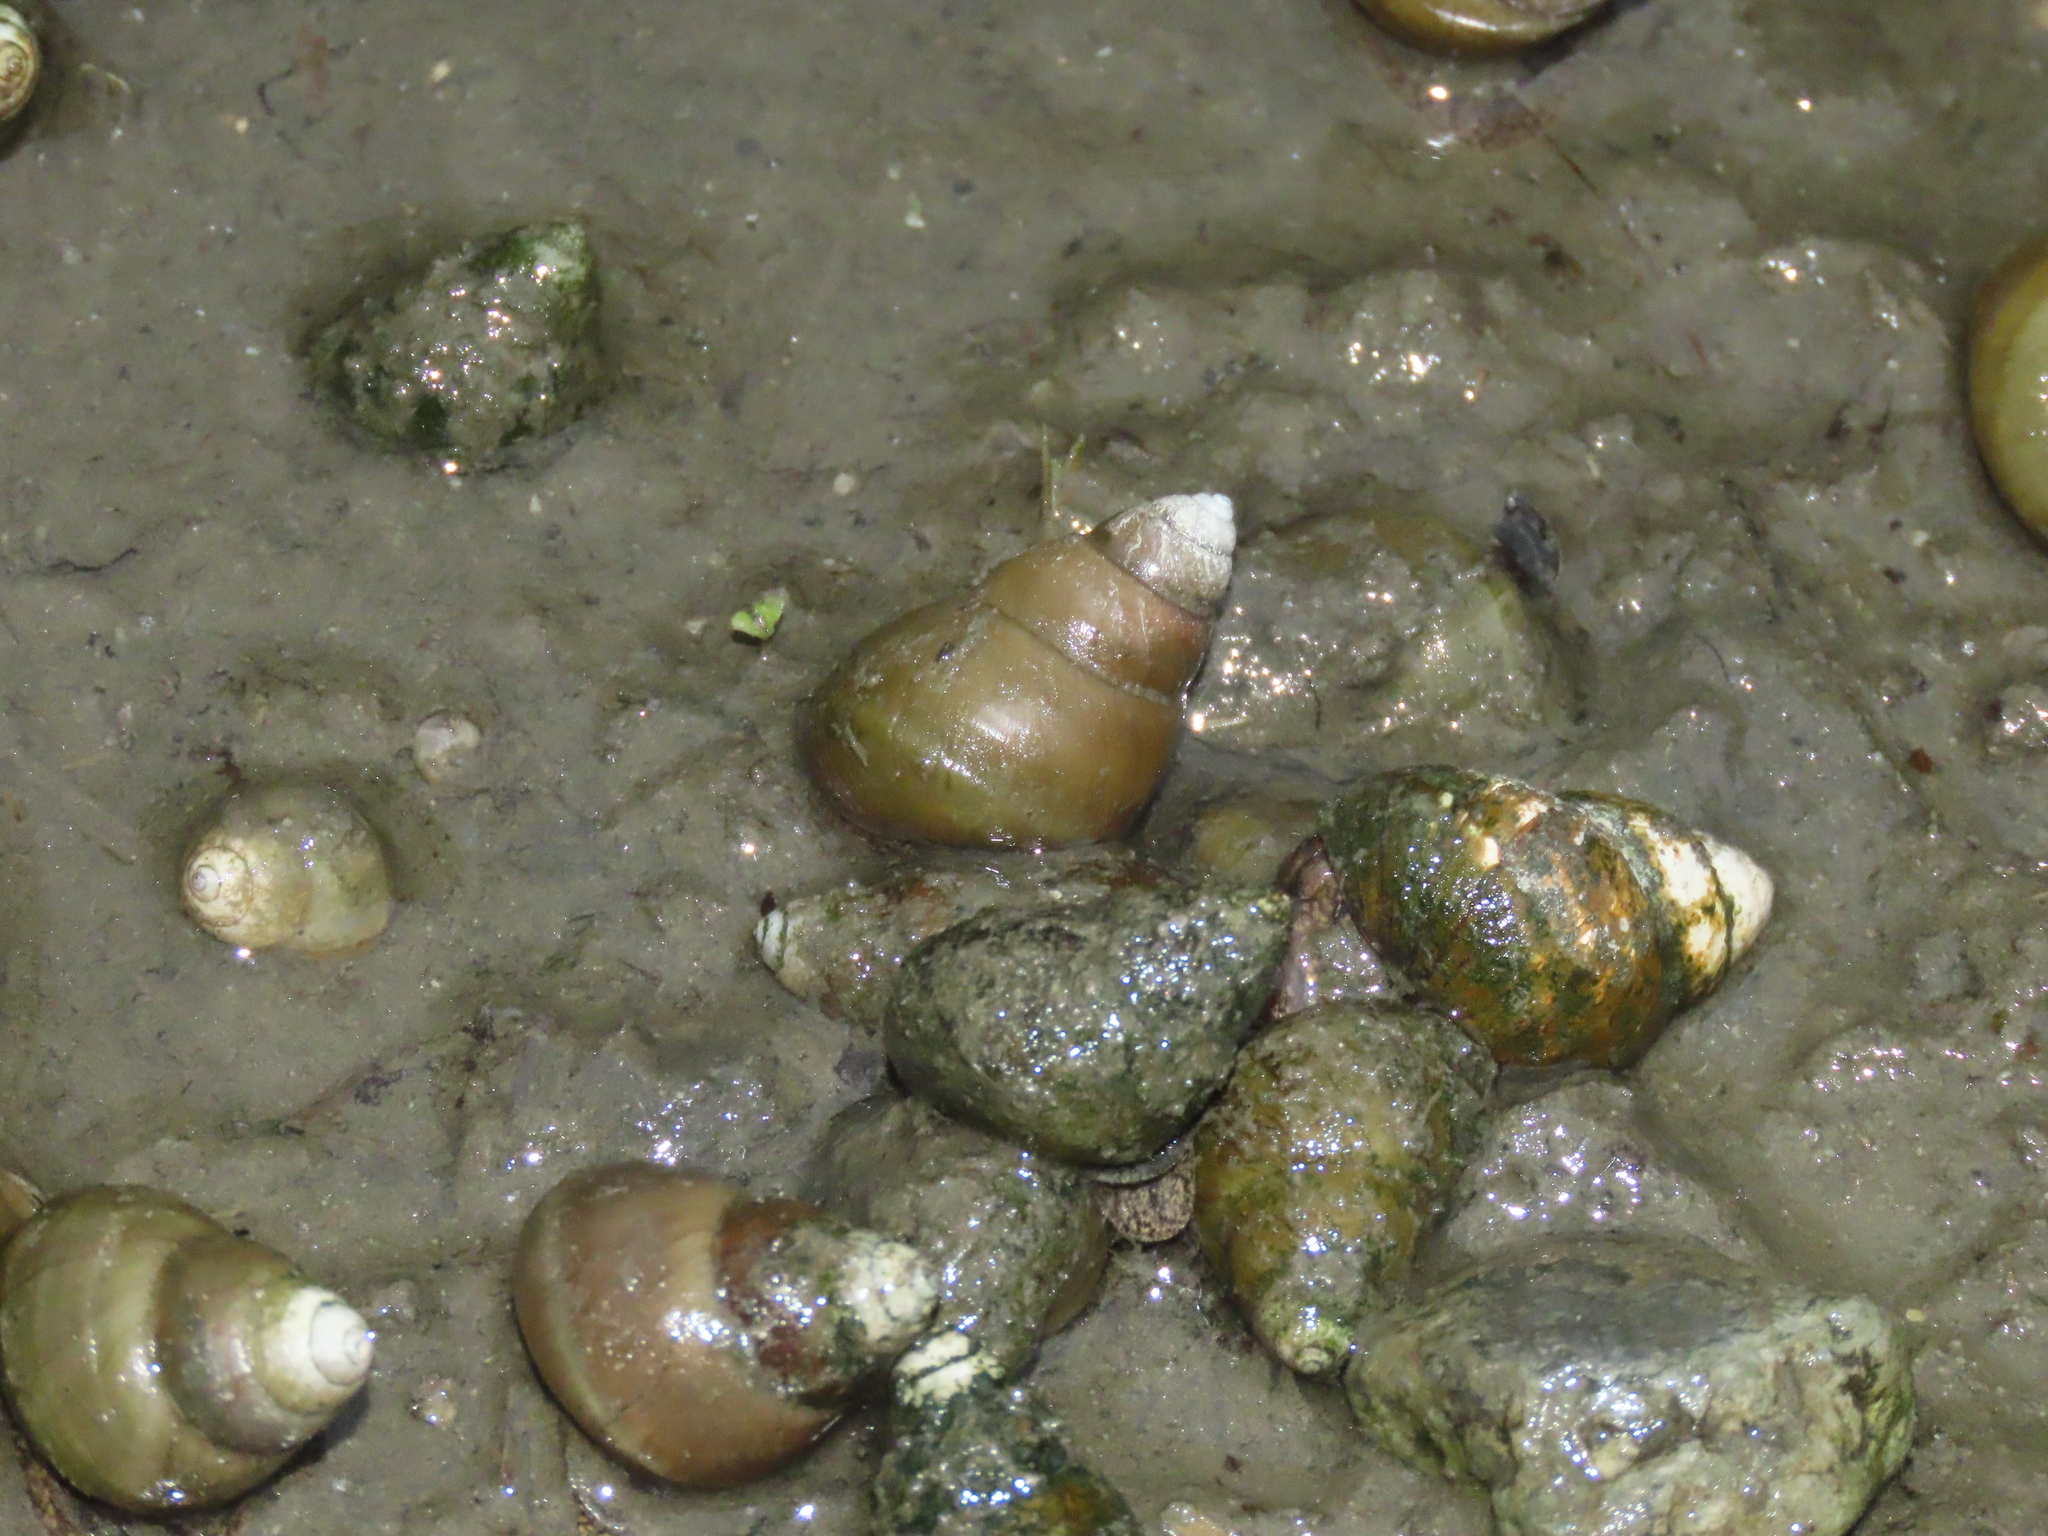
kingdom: Animalia
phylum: Mollusca
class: Gastropoda
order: Architaenioglossa
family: Viviparidae
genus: Sinotaia
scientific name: Sinotaia quadrata
